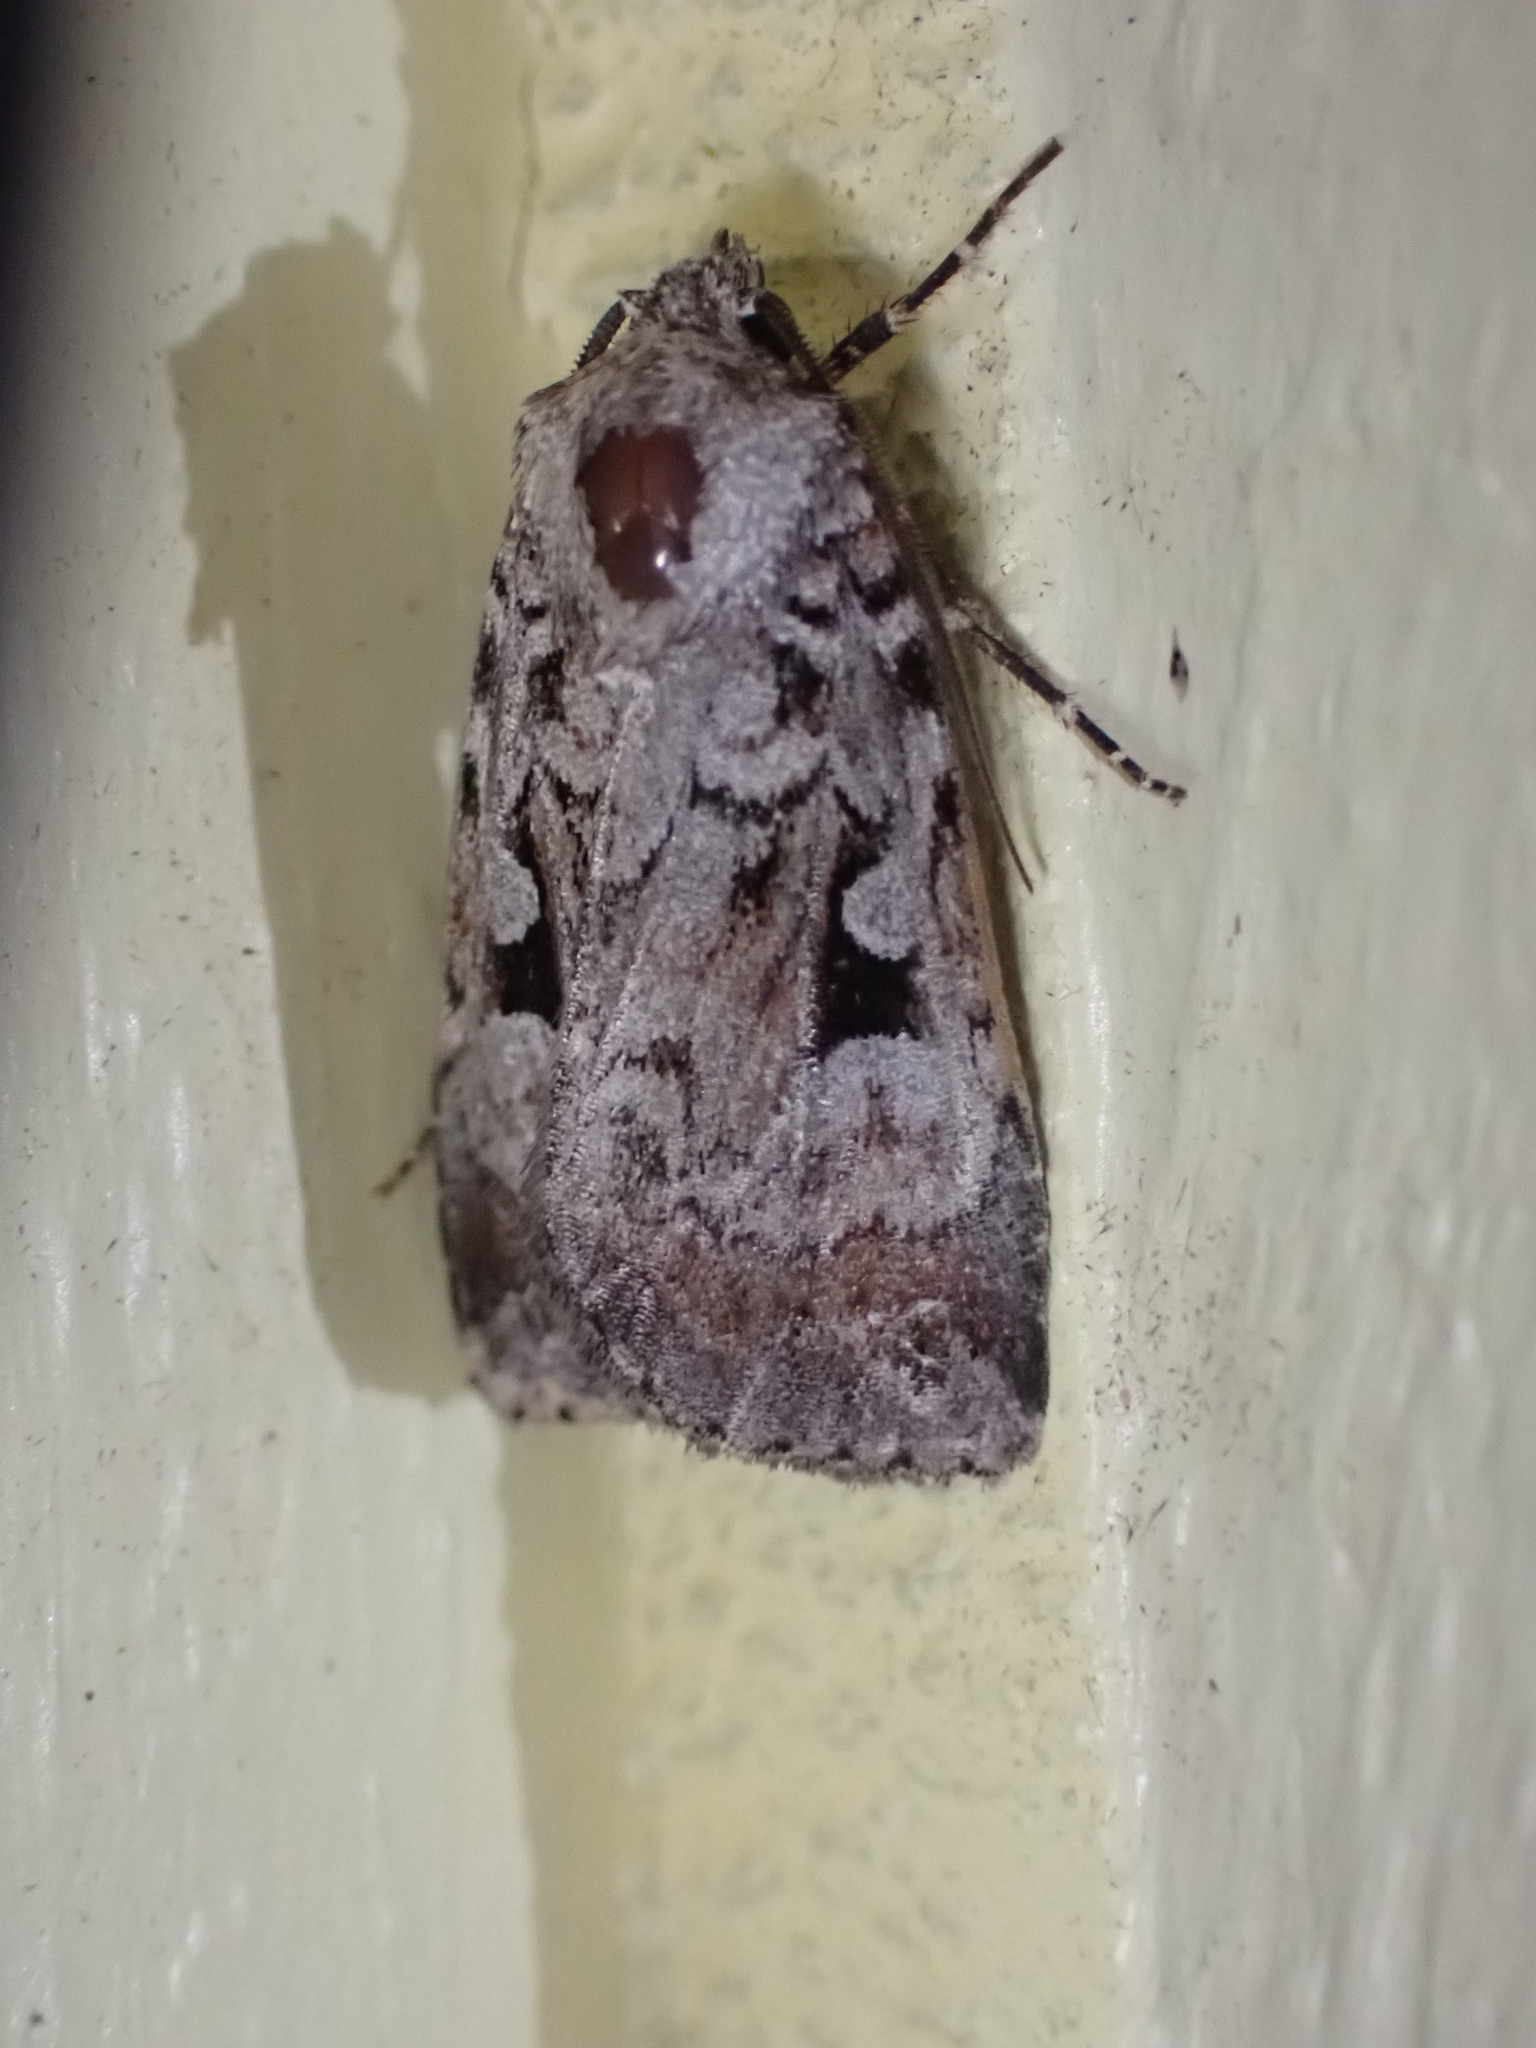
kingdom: Animalia
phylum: Arthropoda
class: Insecta
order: Lepidoptera
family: Noctuidae
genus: Feltia
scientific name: Feltia geniculata
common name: Knee-joint dart
